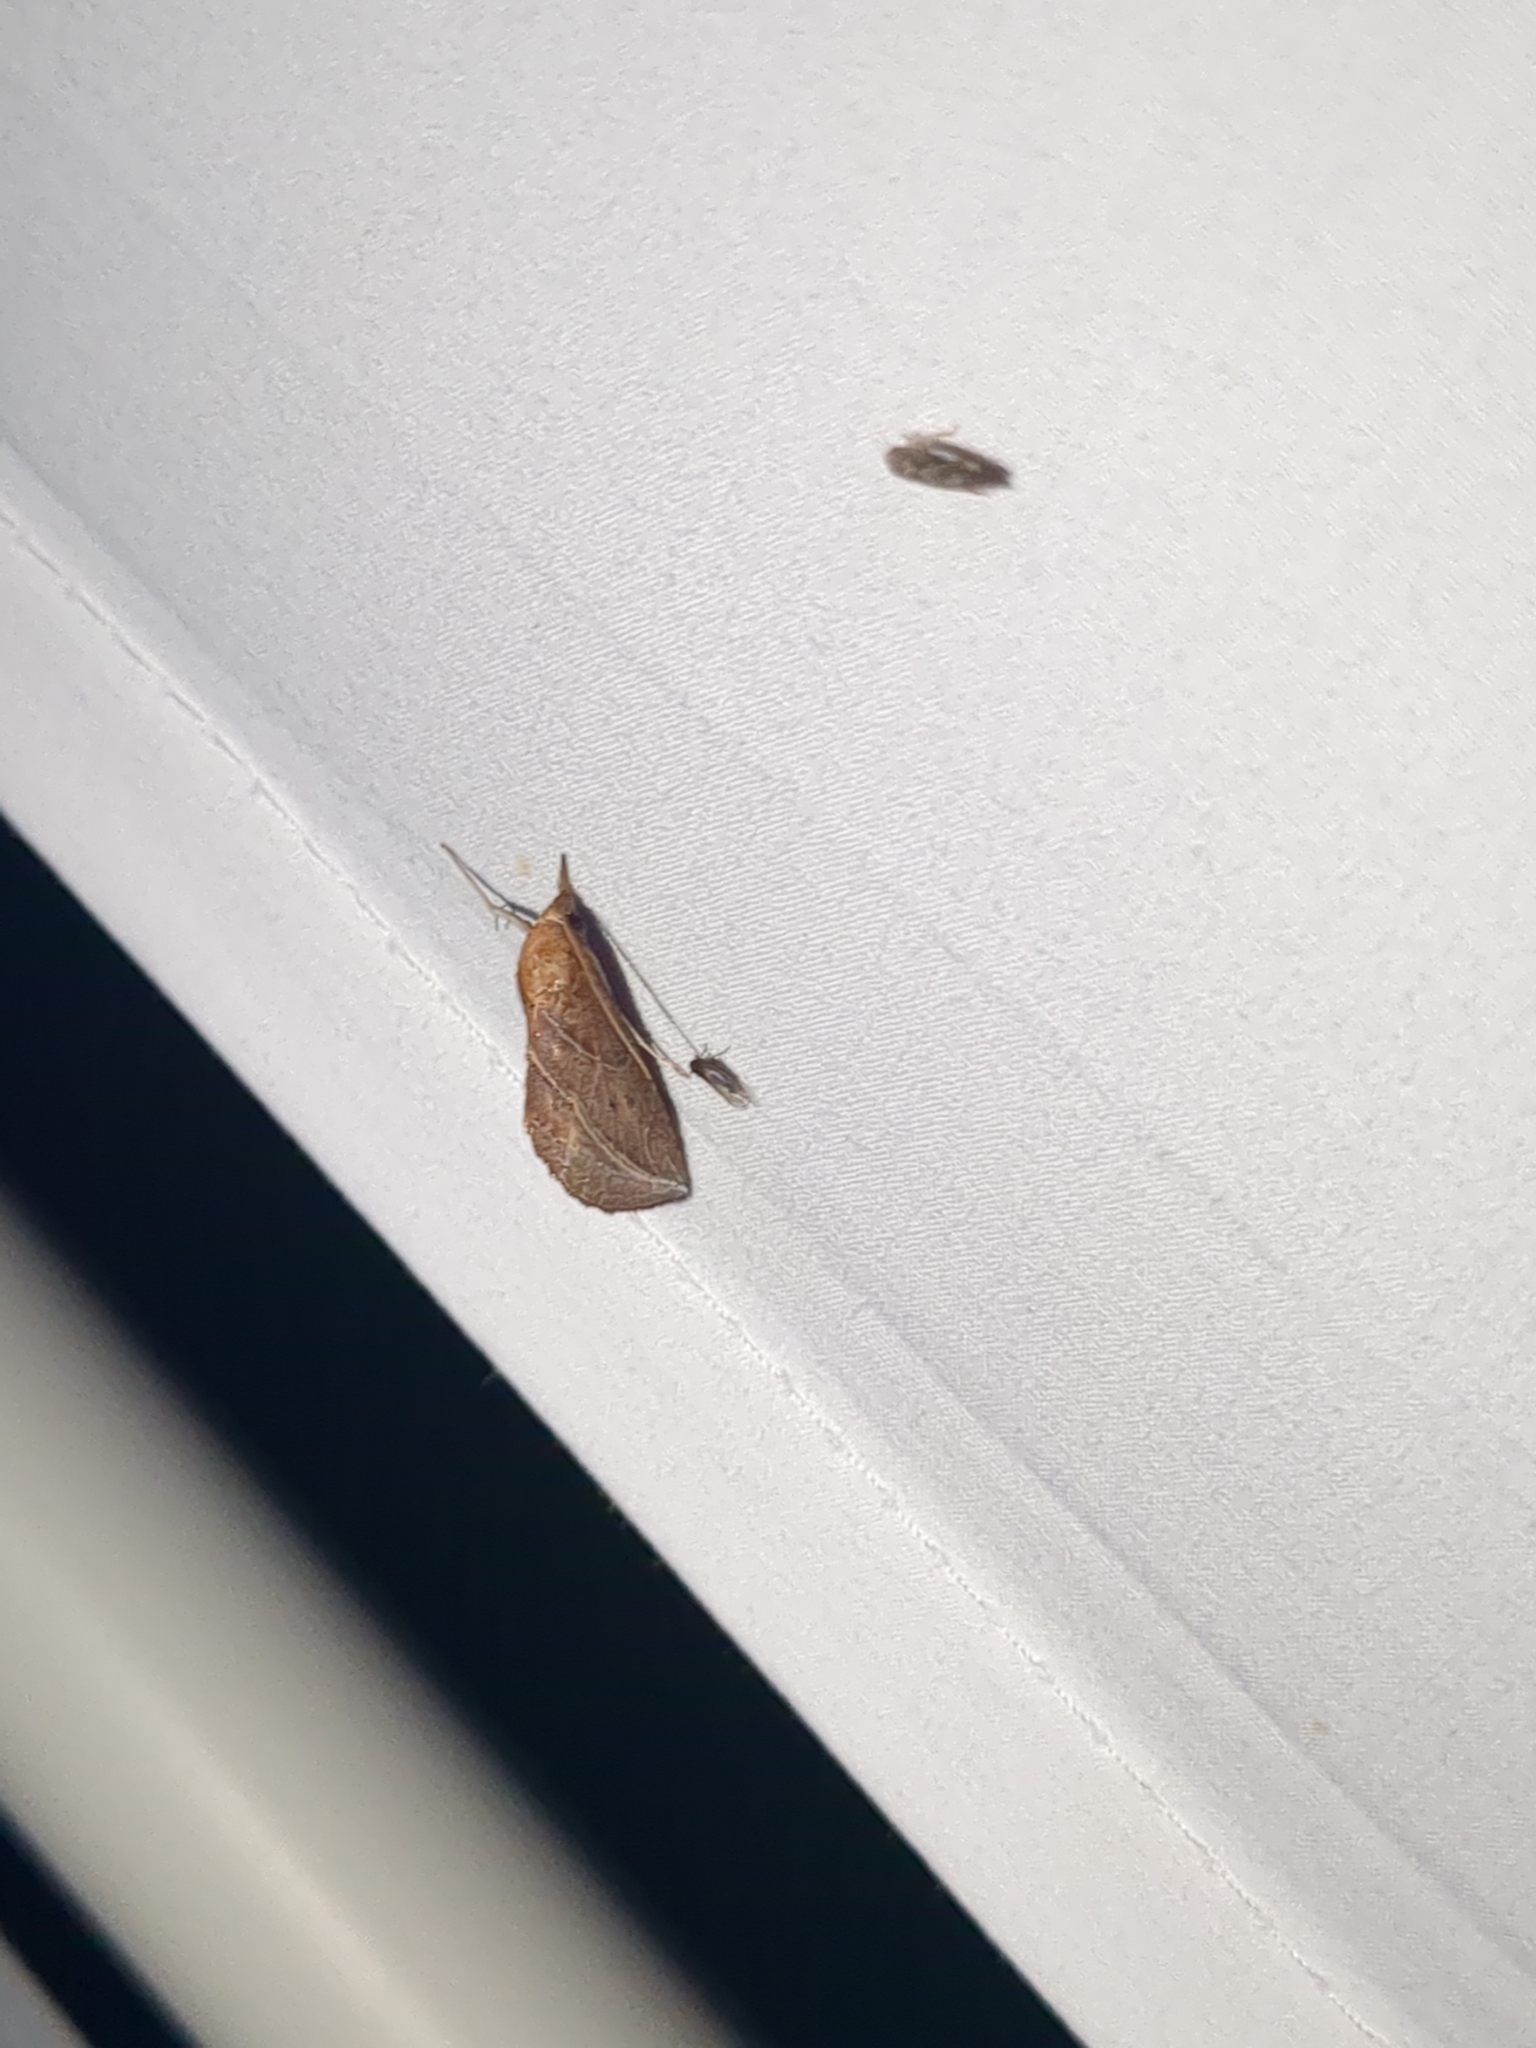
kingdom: Animalia
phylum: Arthropoda
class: Insecta
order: Lepidoptera
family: Erebidae
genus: Phyprosopus
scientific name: Phyprosopus callitrichoides
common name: Curved-lined owlet
